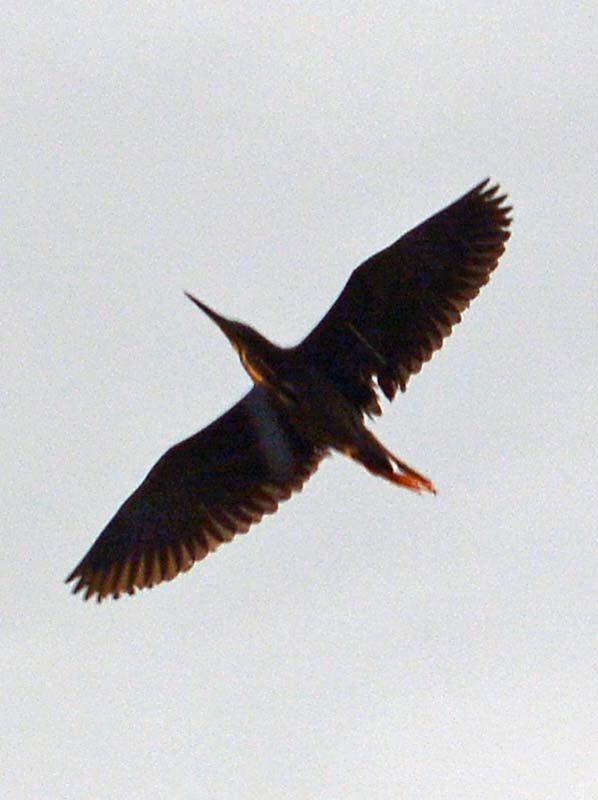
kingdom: Animalia
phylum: Chordata
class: Aves
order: Pelecaniformes
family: Ardeidae
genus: Butorides
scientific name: Butorides virescens
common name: Green heron
